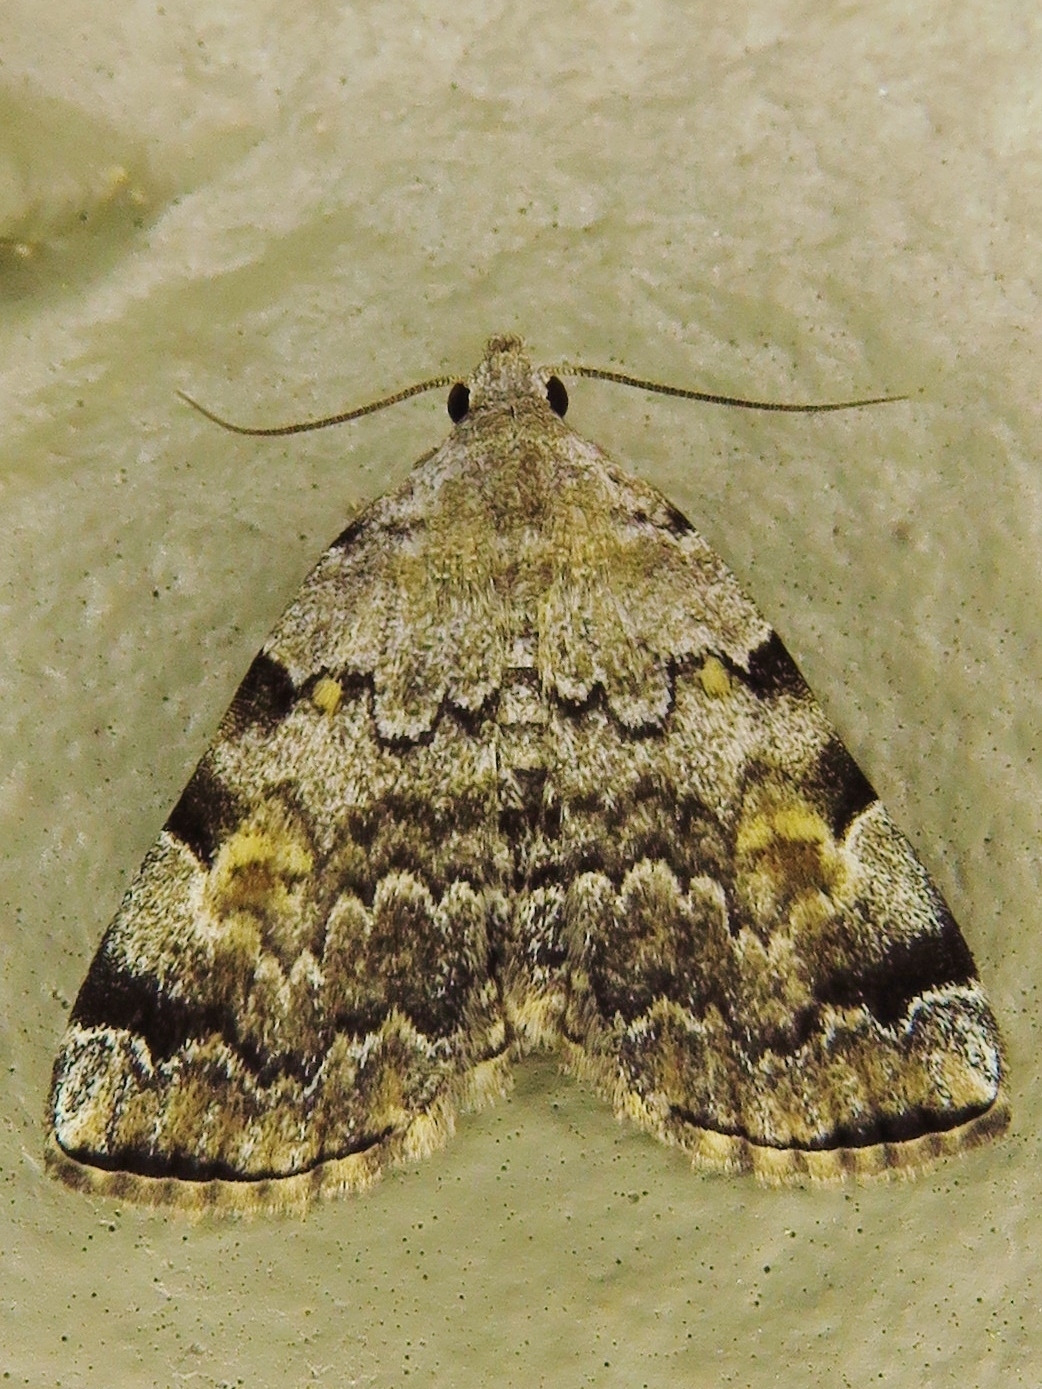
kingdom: Animalia
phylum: Arthropoda
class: Insecta
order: Lepidoptera
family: Erebidae
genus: Idia
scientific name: Idia americalis
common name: American idia moth
